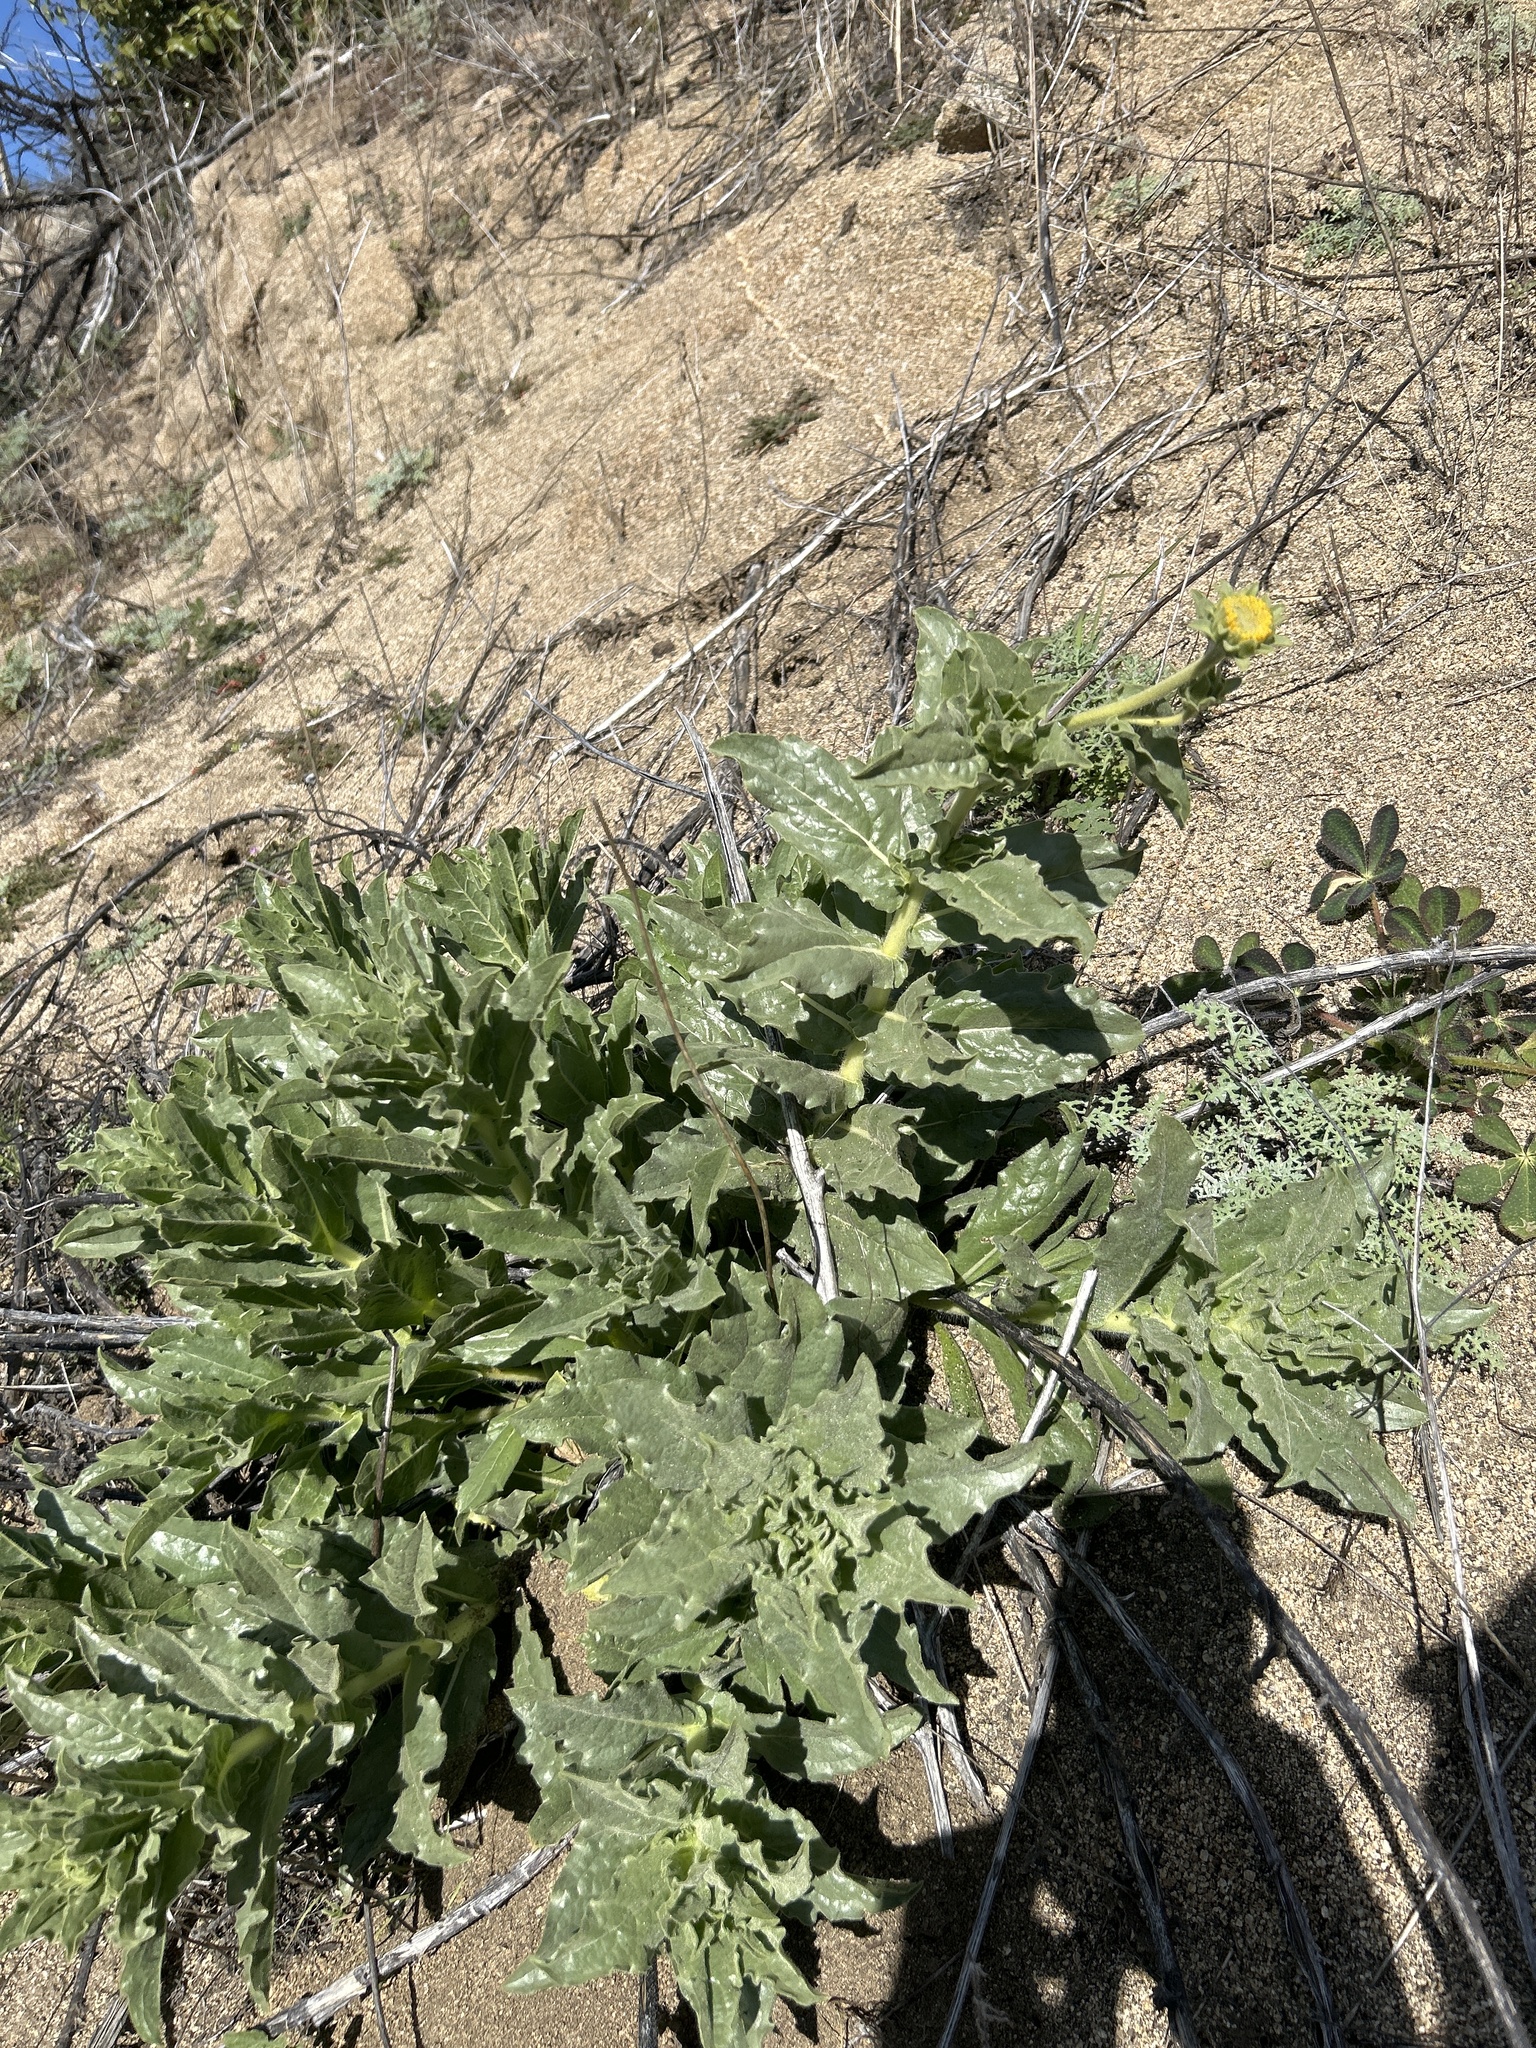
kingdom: Plantae
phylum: Tracheophyta
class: Magnoliopsida
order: Asterales
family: Asteraceae
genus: Geraea
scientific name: Geraea viscida
